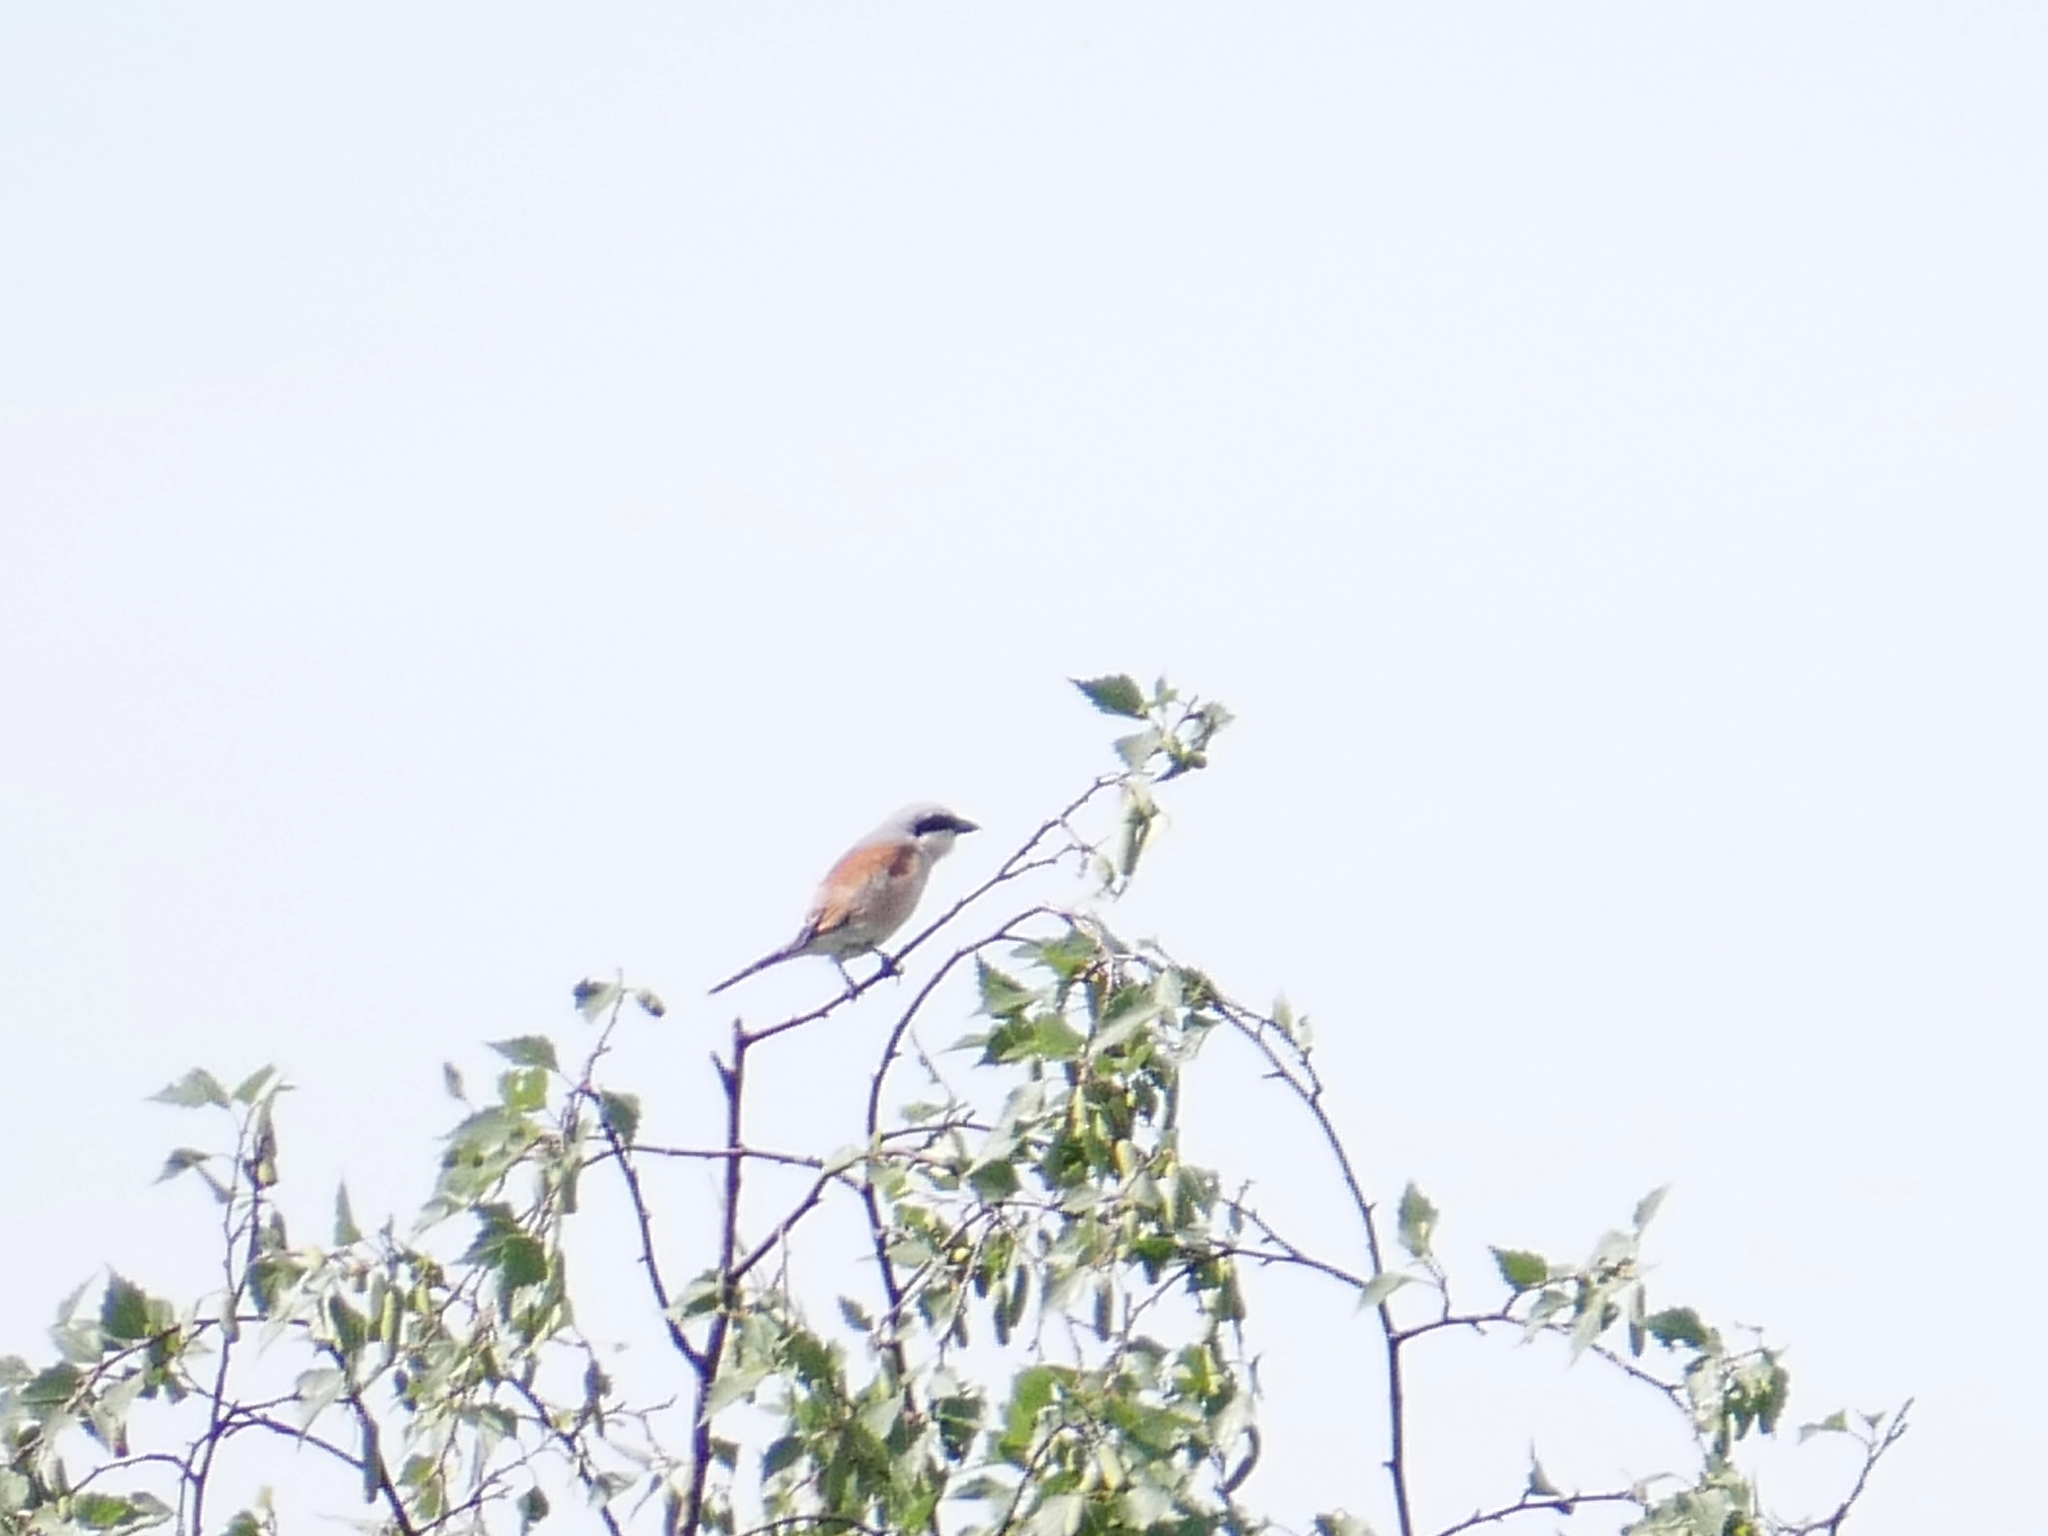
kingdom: Animalia
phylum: Chordata
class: Aves
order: Passeriformes
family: Laniidae
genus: Lanius
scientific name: Lanius collurio
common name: Red-backed shrike
